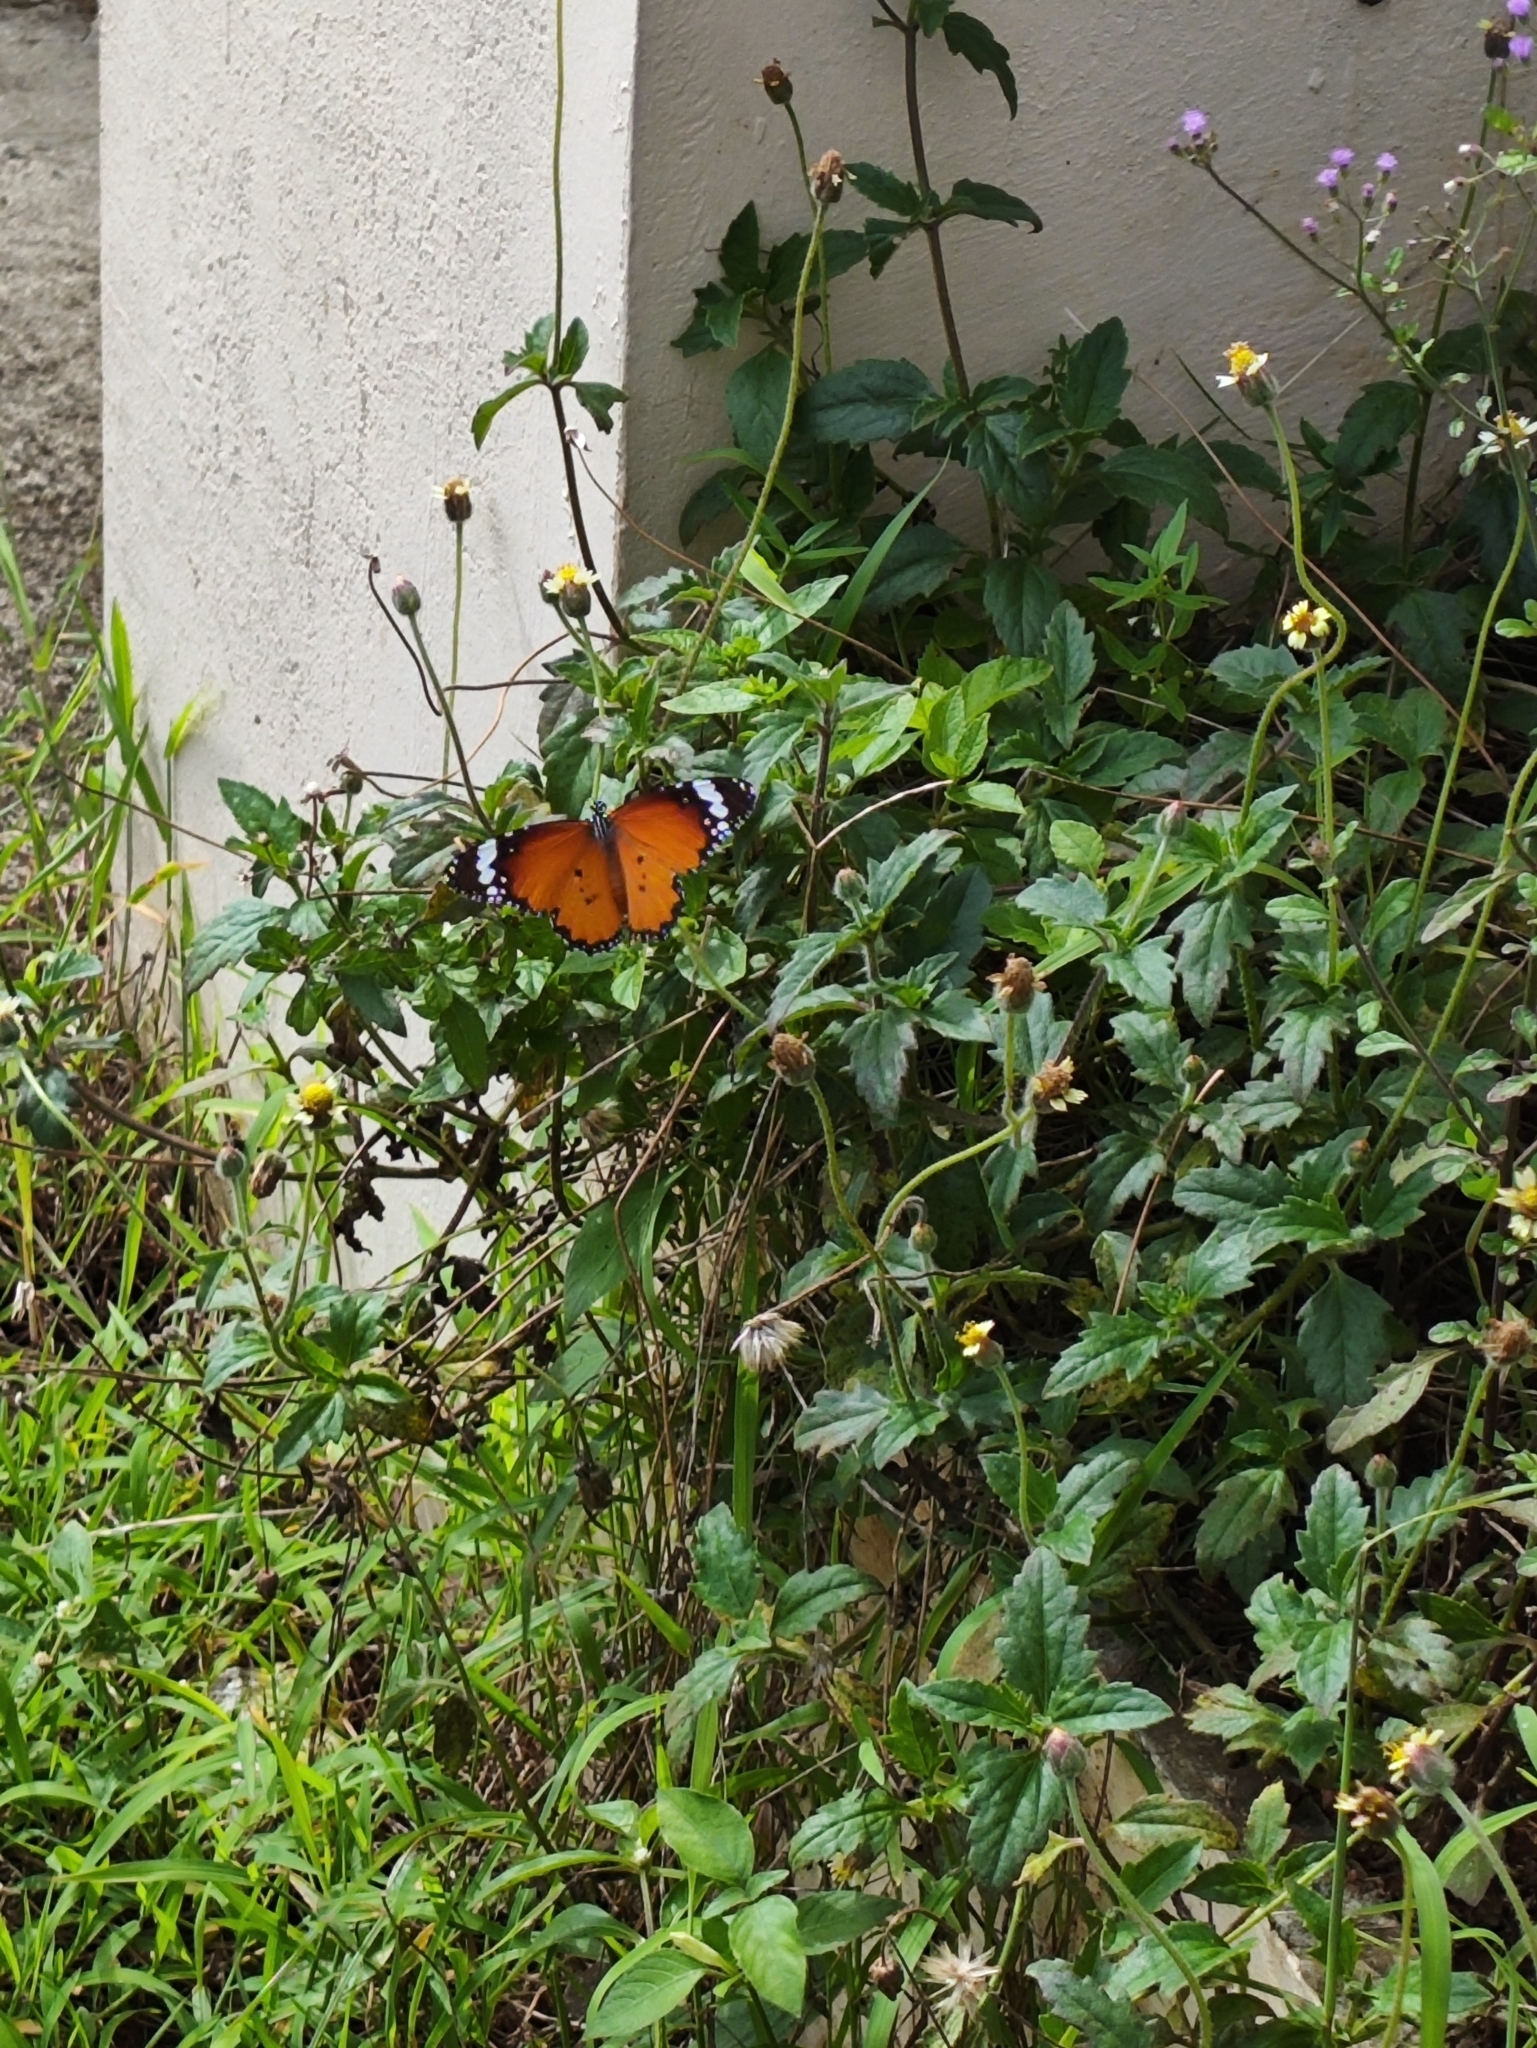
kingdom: Animalia
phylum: Arthropoda
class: Insecta
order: Lepidoptera
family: Nymphalidae
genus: Danaus
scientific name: Danaus chrysippus
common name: Plain tiger
